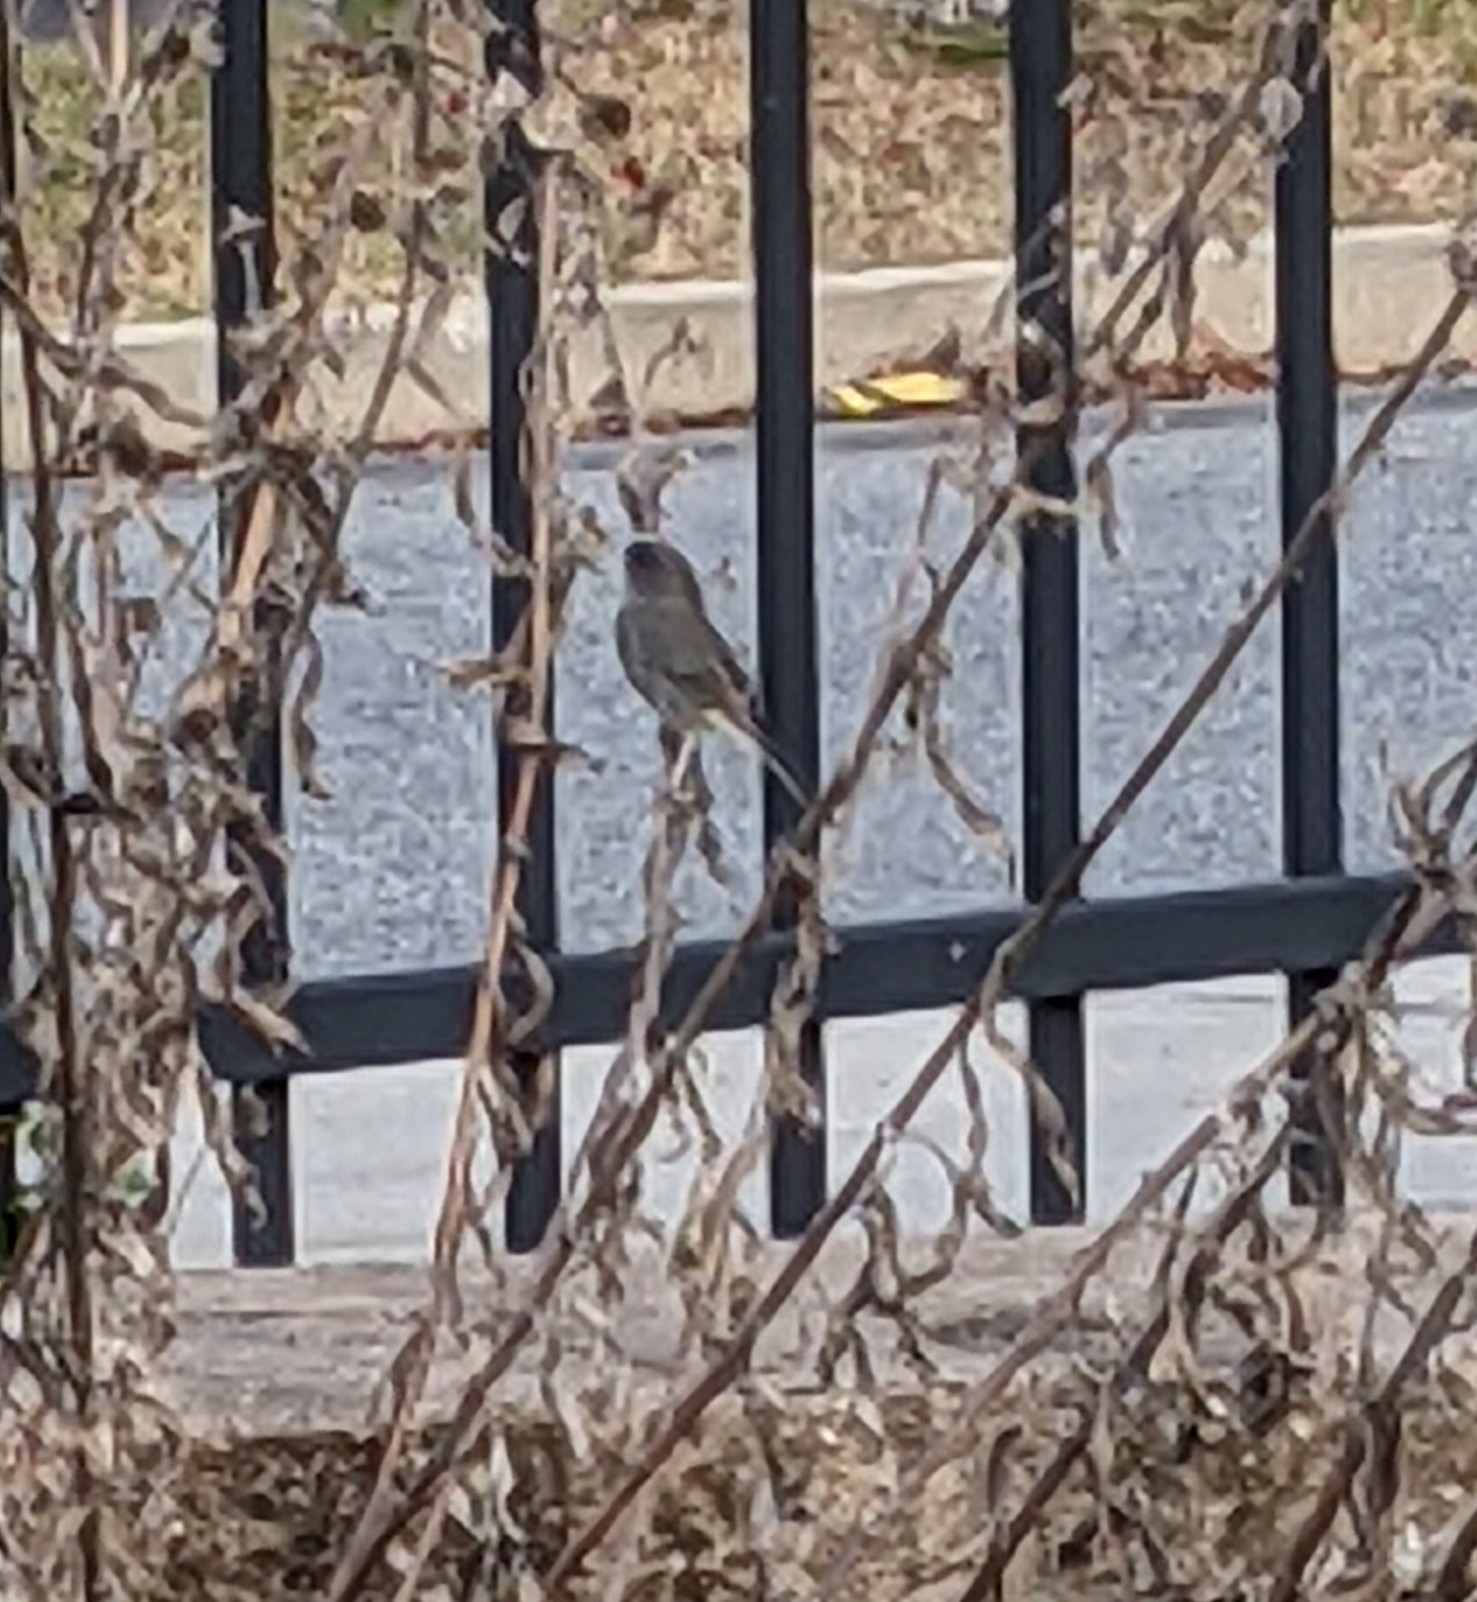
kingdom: Animalia
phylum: Chordata
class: Aves
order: Passeriformes
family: Passerellidae
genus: Junco
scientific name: Junco hyemalis
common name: Dark-eyed junco
